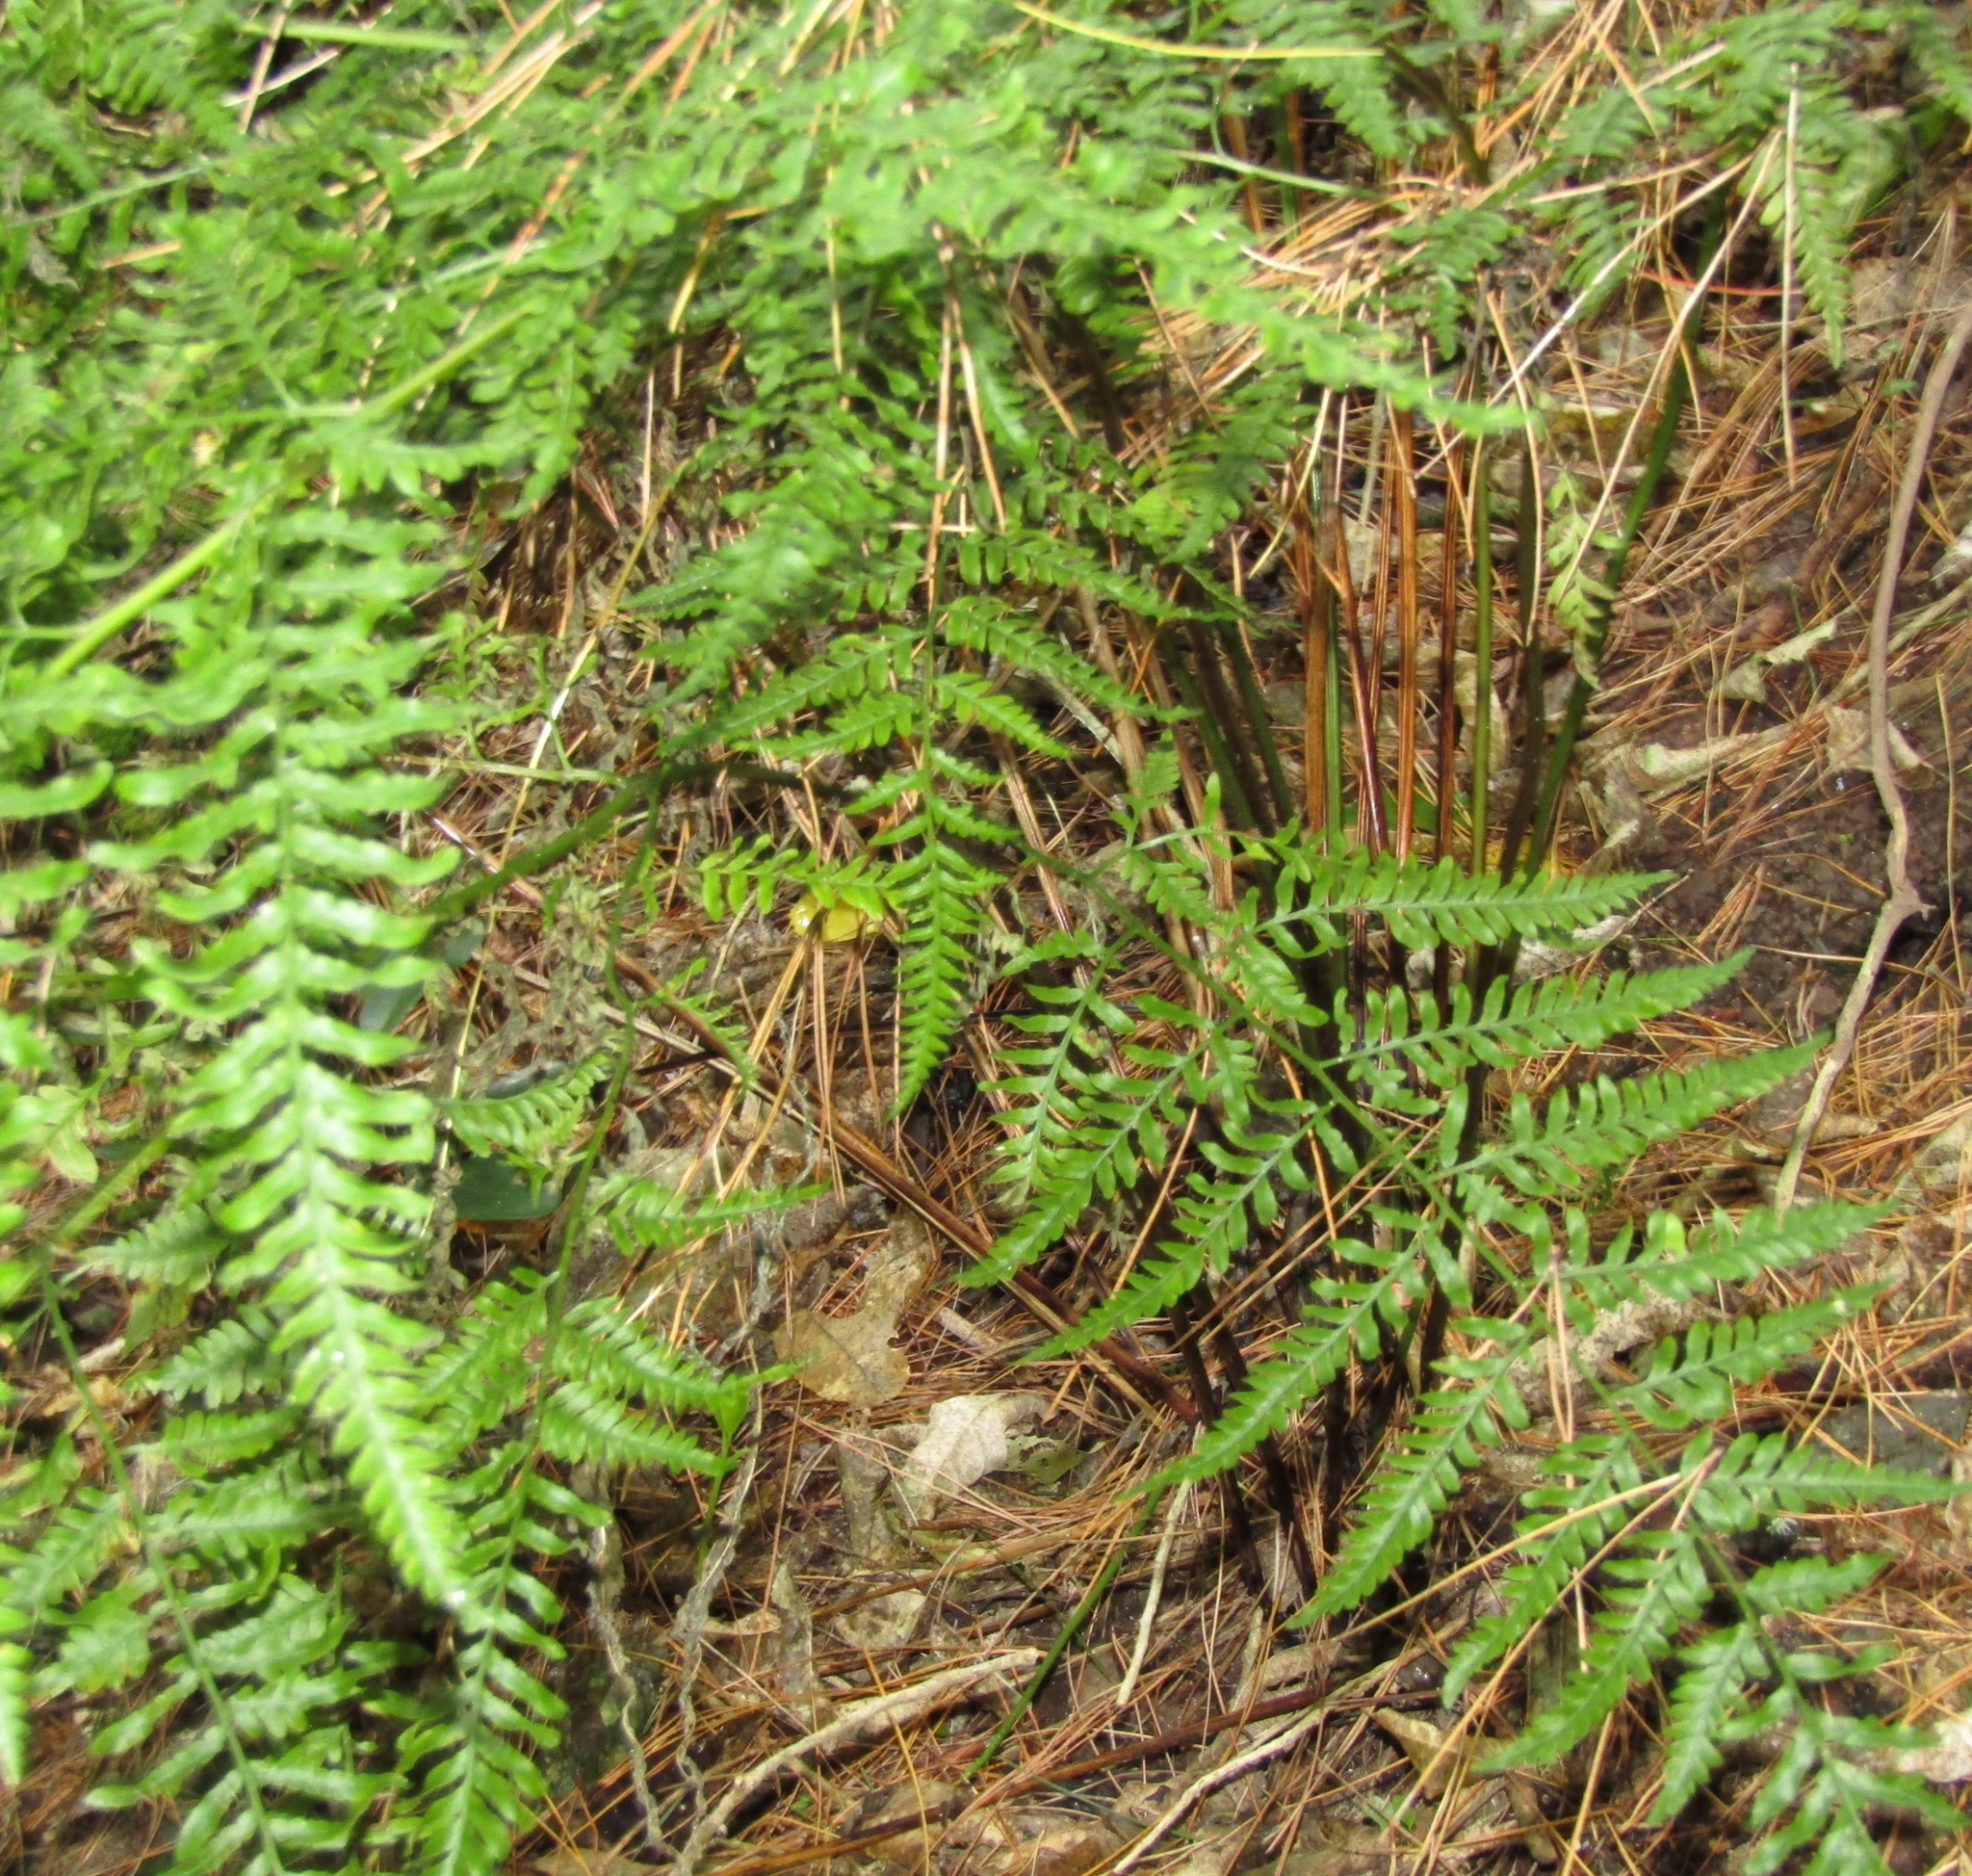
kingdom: Plantae
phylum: Tracheophyta
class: Polypodiopsida
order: Polypodiales
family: Pteridaceae
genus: Pteris
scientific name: Pteris tremula
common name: Australian brake
